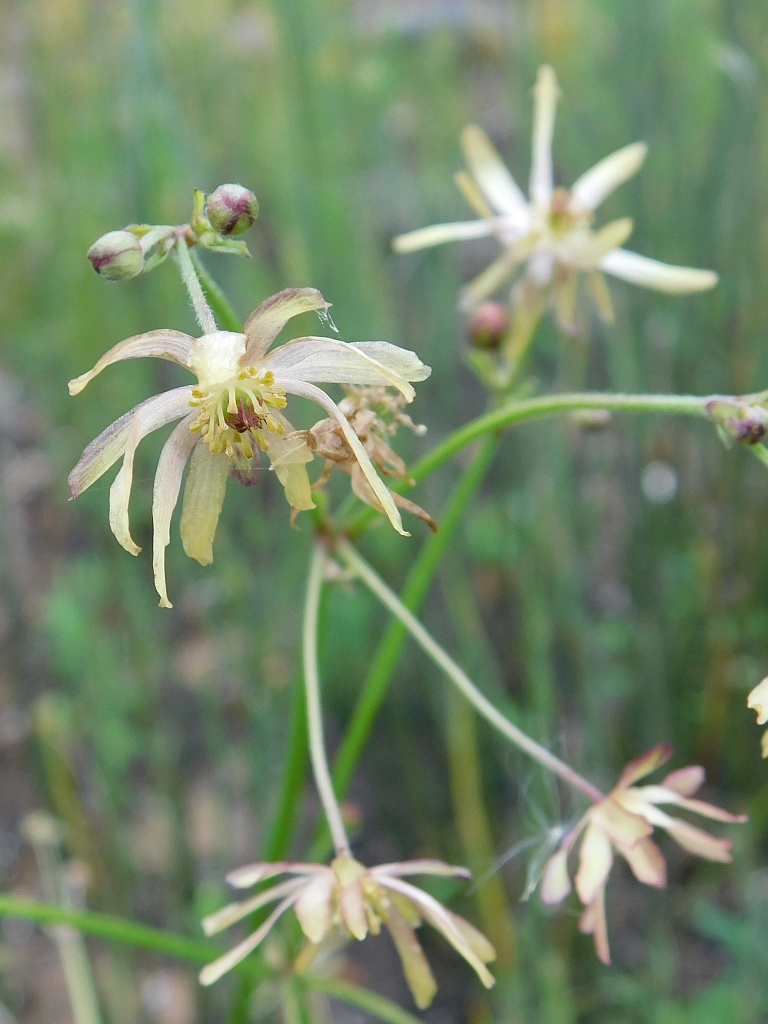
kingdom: Plantae
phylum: Tracheophyta
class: Magnoliopsida
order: Ranunculales
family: Ranunculaceae
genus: Knowltonia
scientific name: Knowltonia anemonoides
